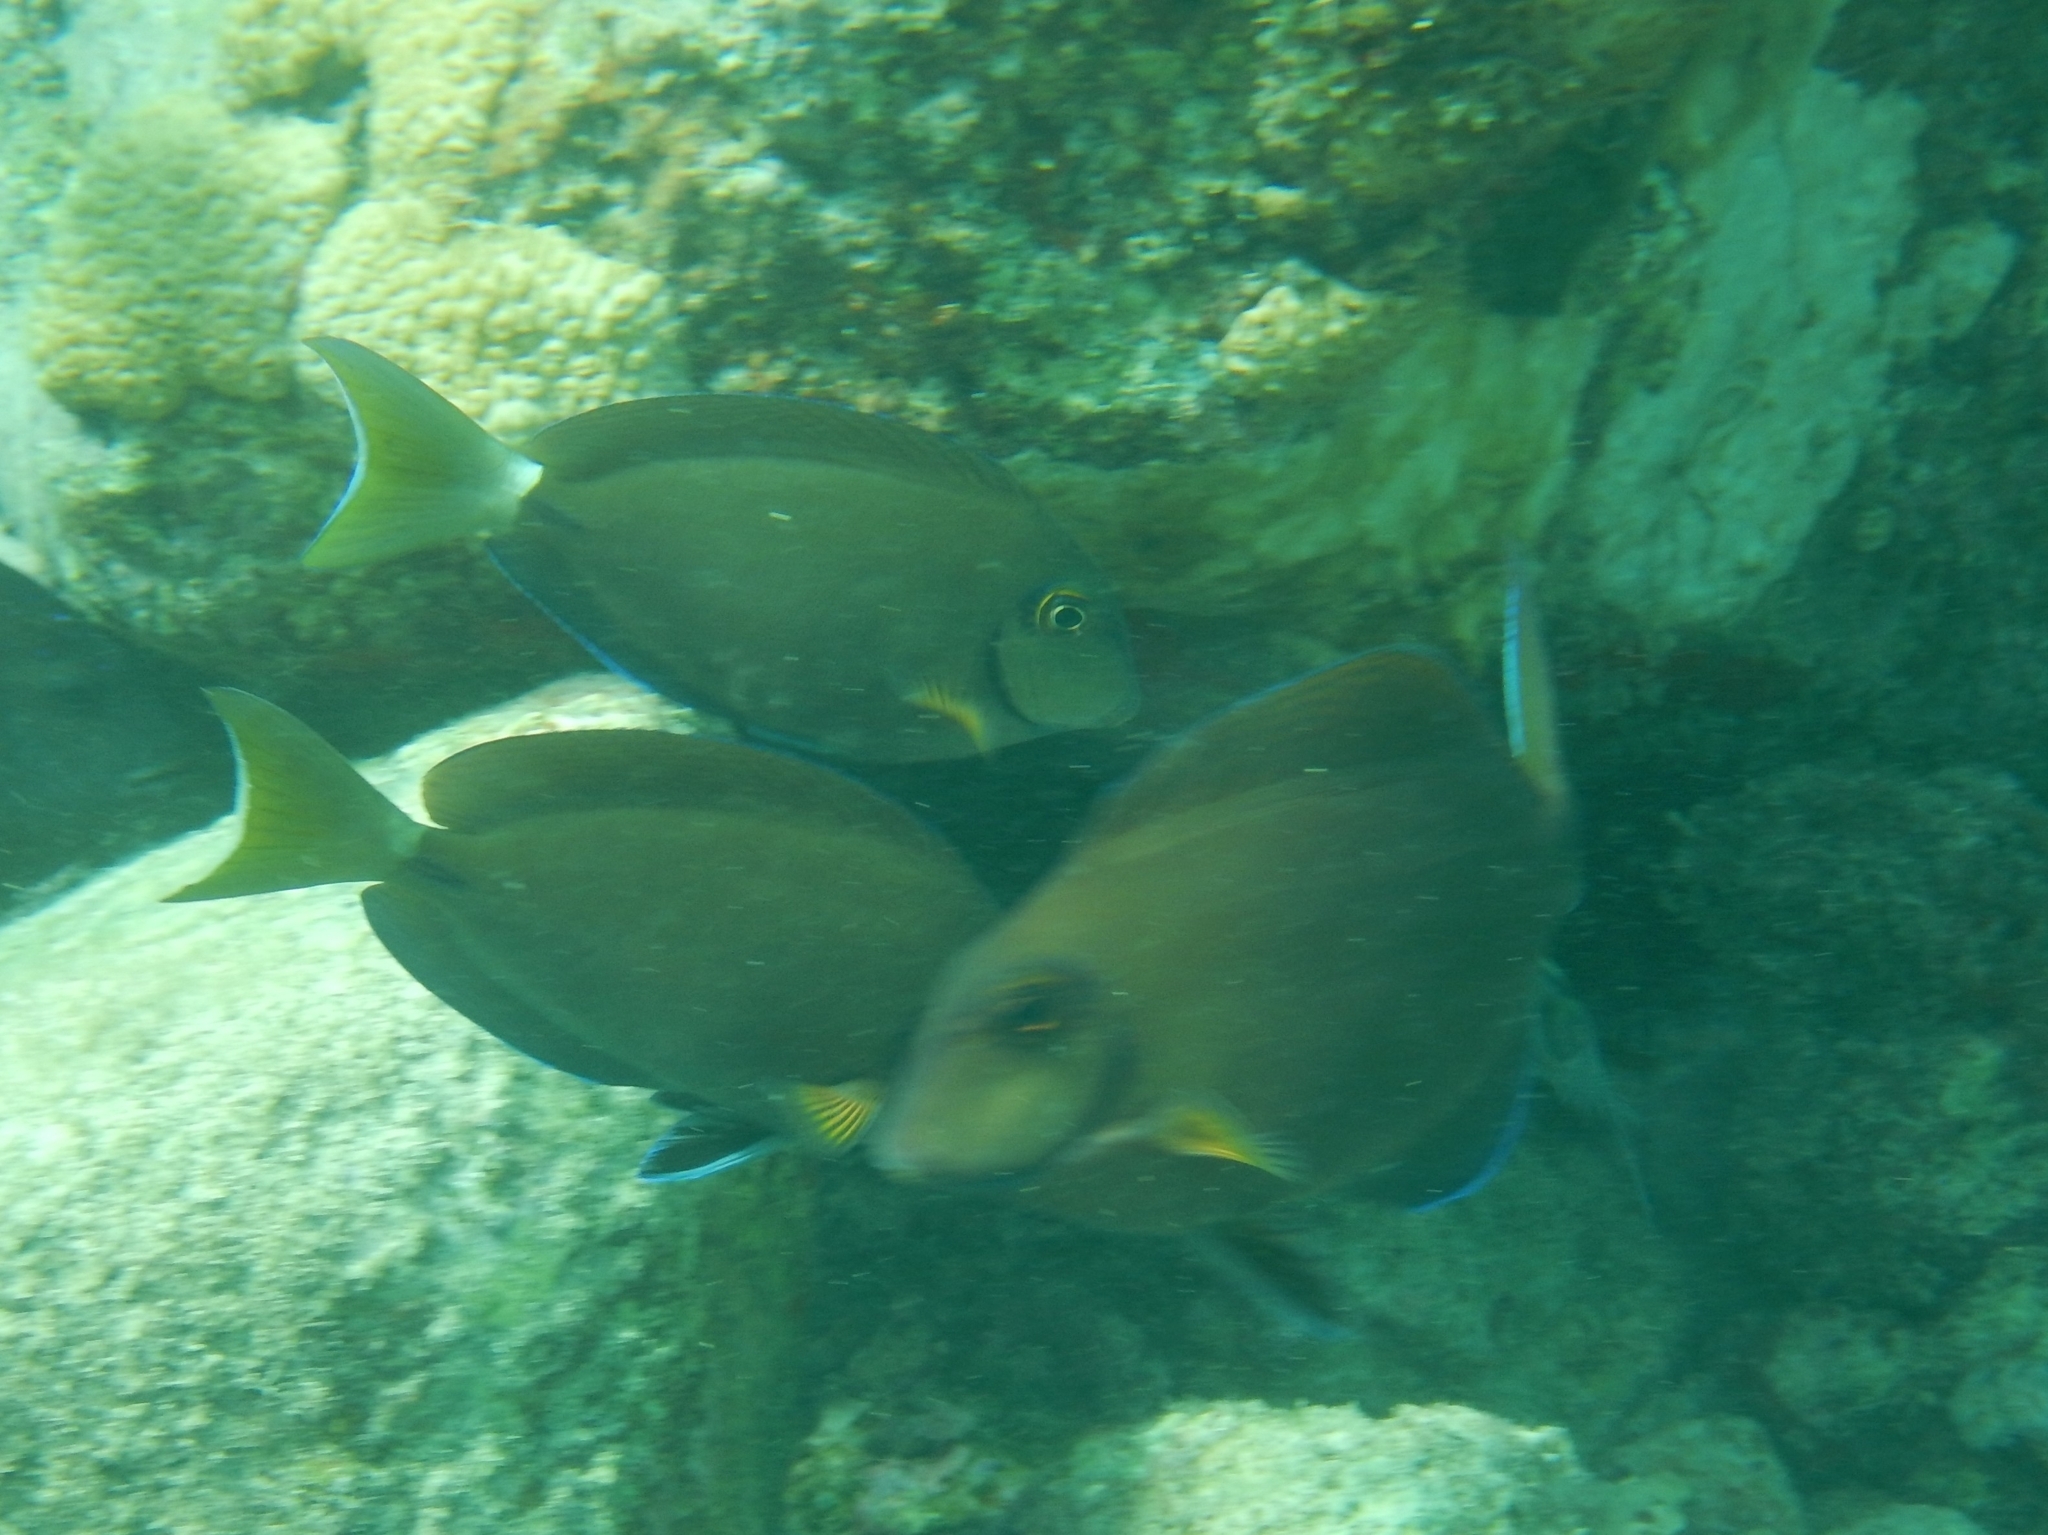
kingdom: Animalia
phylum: Chordata
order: Perciformes
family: Acanthuridae
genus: Acanthurus
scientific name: Acanthurus bahianus
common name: Ocean surgeon
